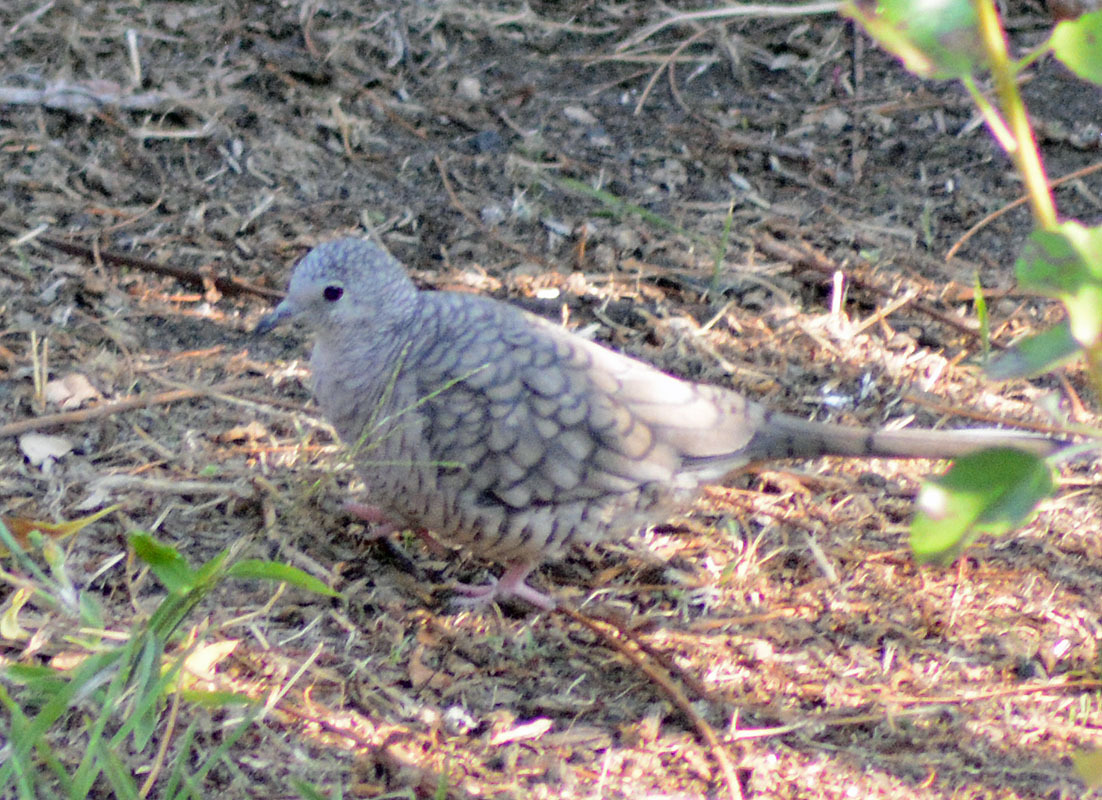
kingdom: Animalia
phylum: Chordata
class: Aves
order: Columbiformes
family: Columbidae
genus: Columbina
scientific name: Columbina inca
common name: Inca dove
